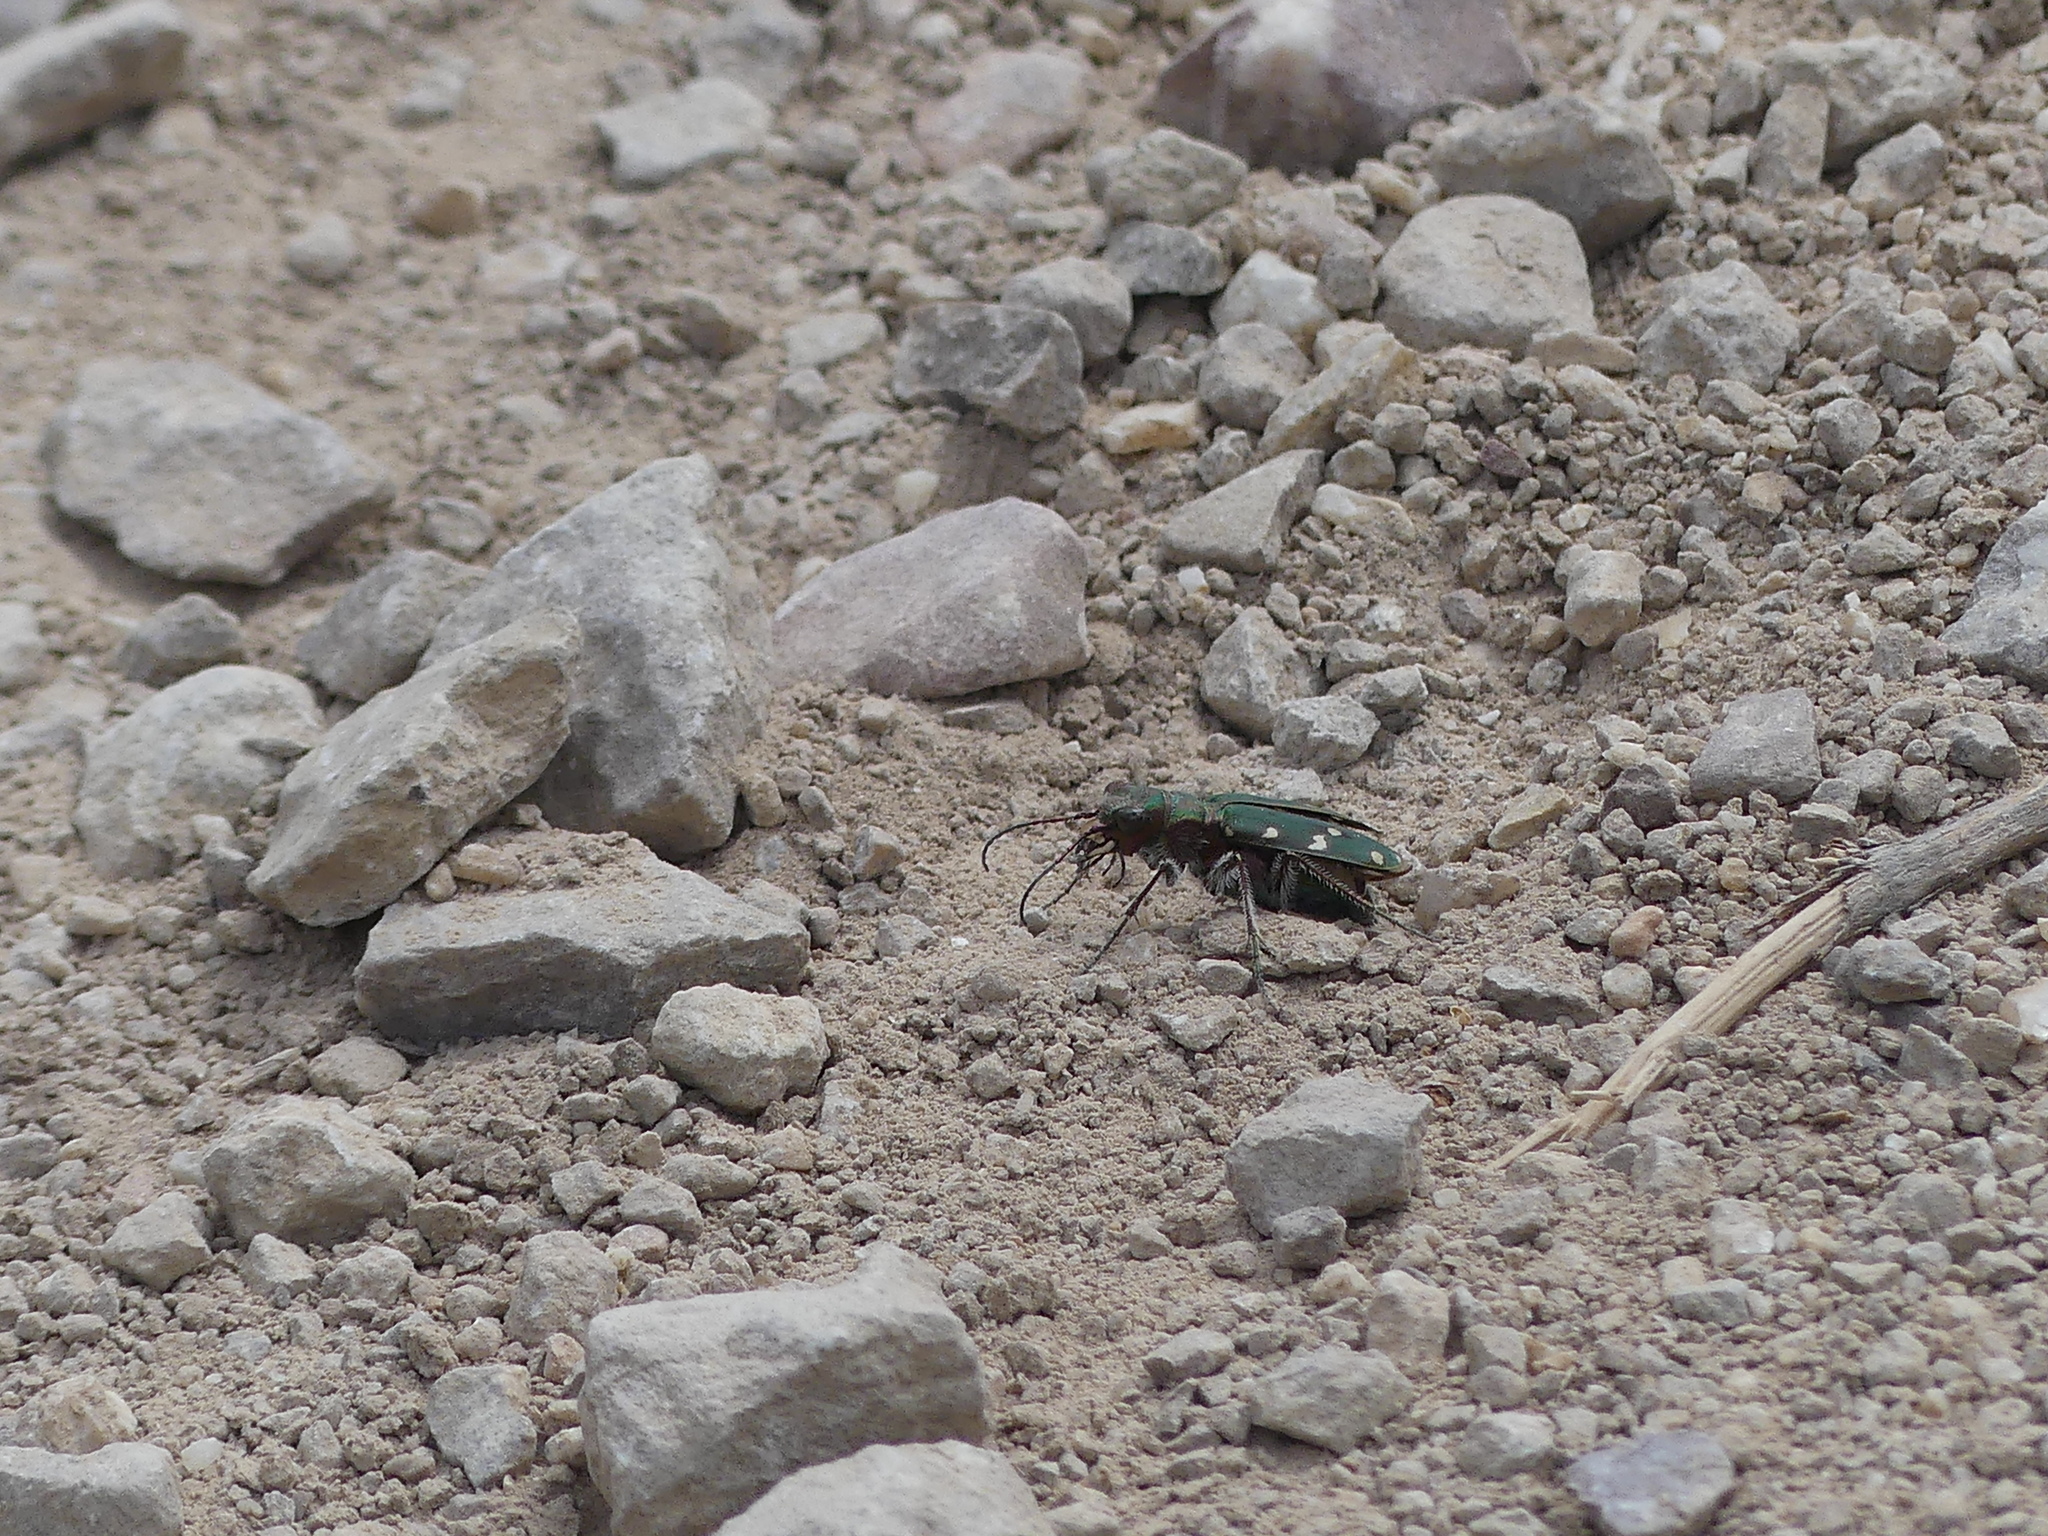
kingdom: Animalia
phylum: Arthropoda
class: Insecta
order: Coleoptera
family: Carabidae
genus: Cicindela
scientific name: Cicindela maroccana
